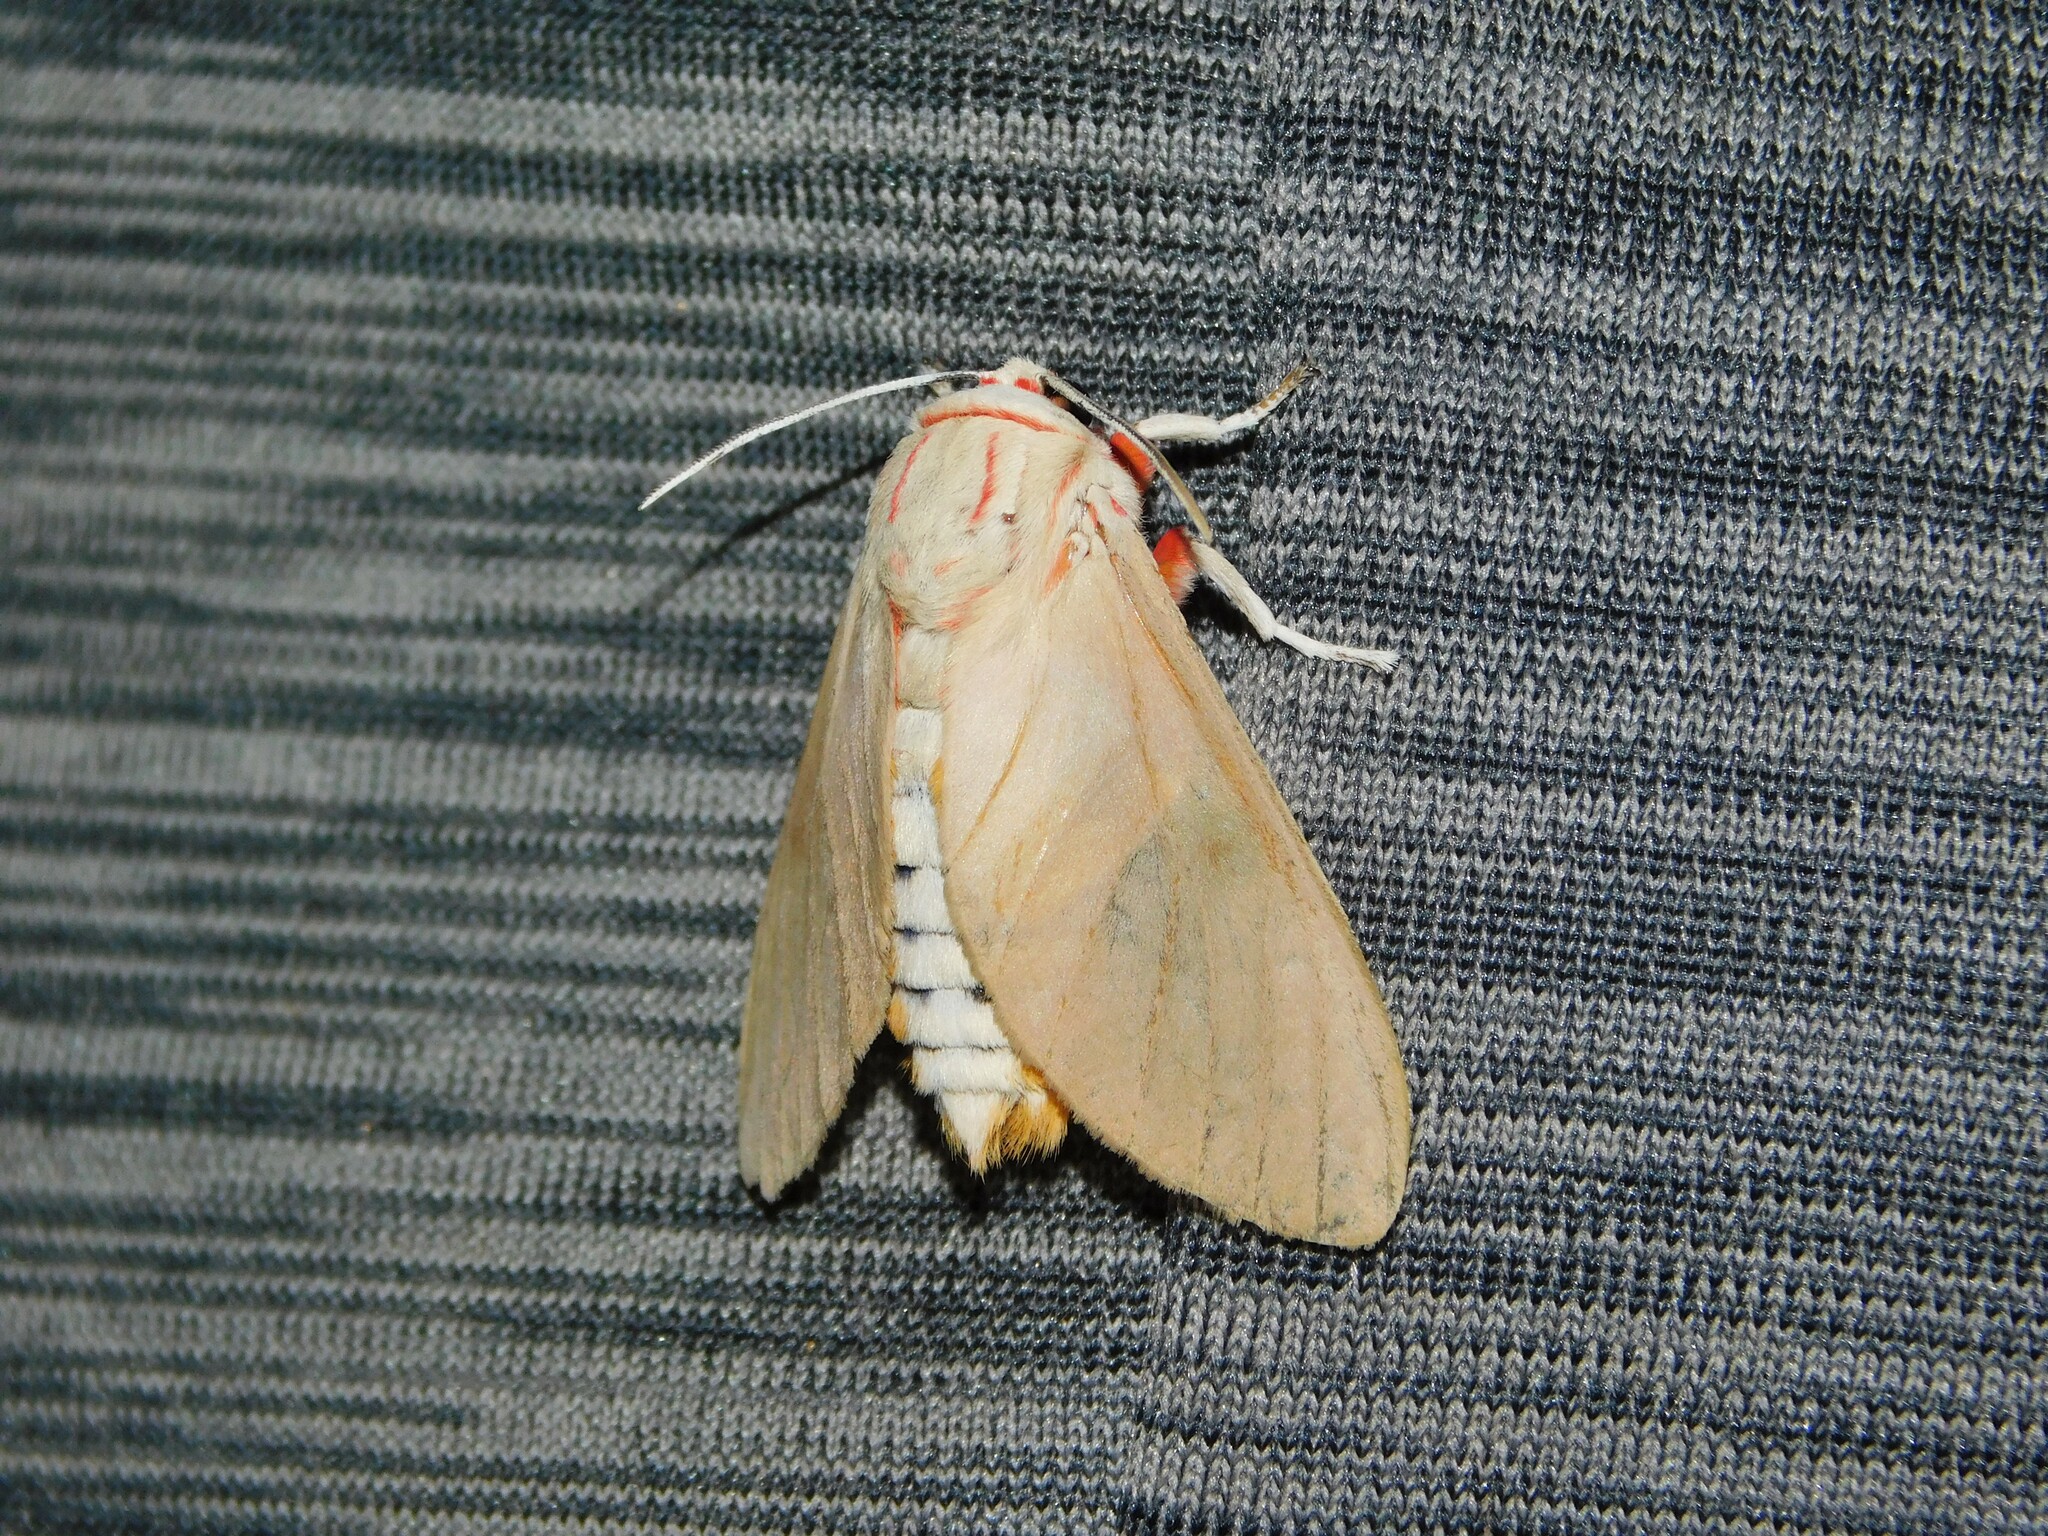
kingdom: Animalia
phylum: Arthropoda
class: Insecta
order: Lepidoptera
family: Erebidae
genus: Balacra
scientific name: Balacra herona
